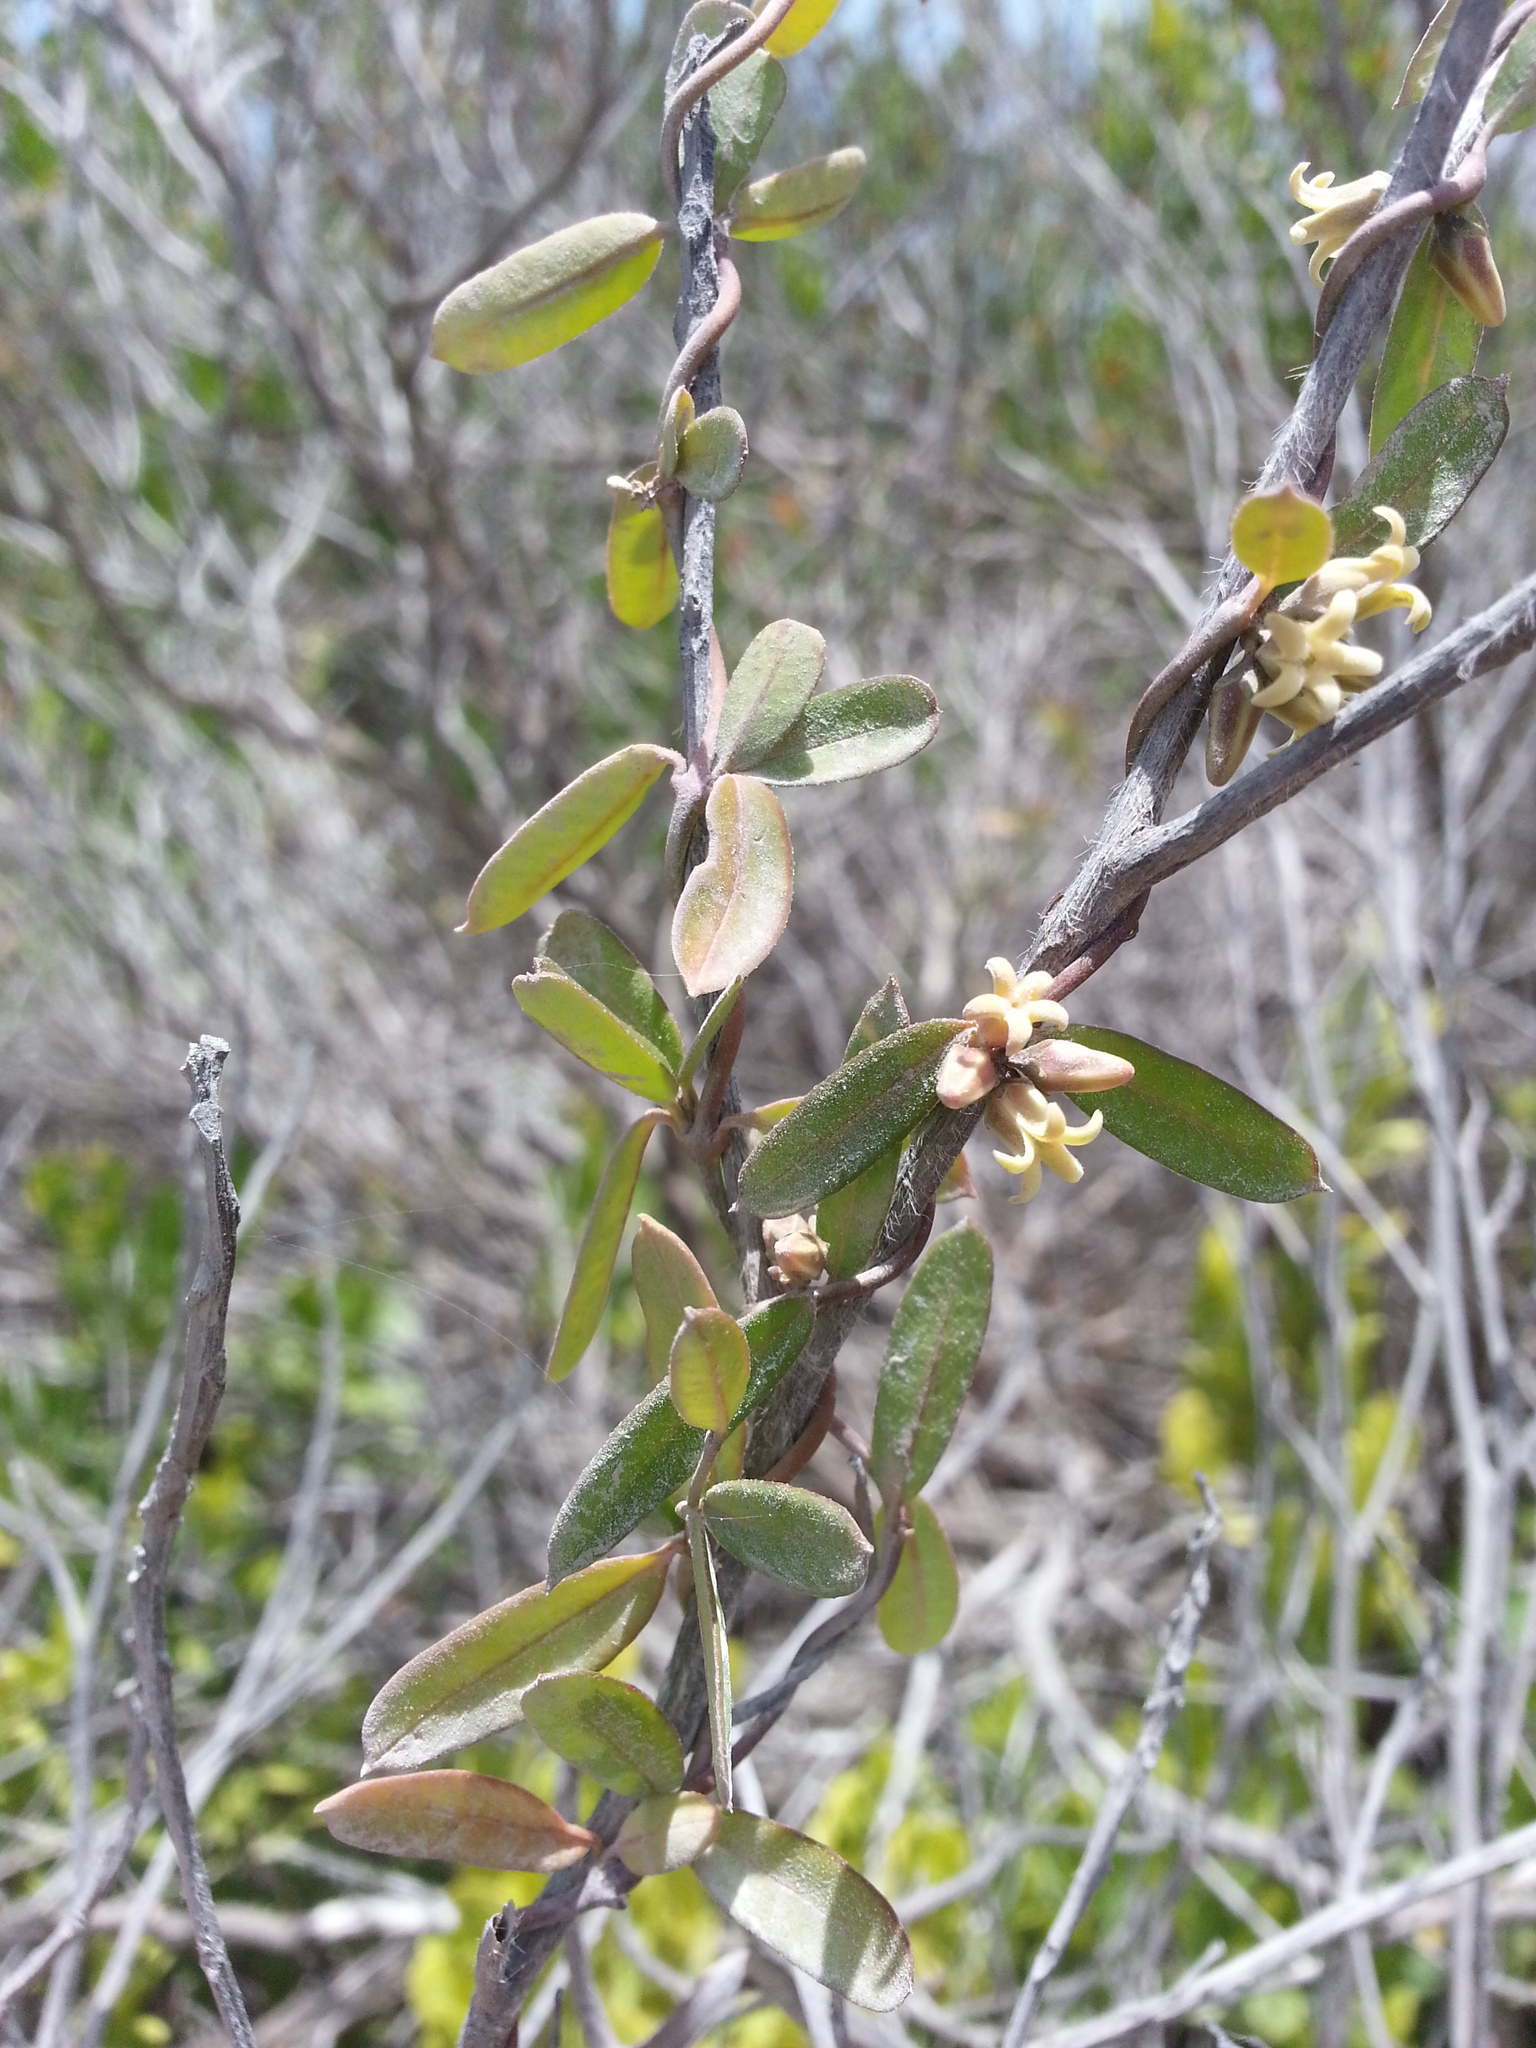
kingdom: Plantae
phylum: Tracheophyta
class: Magnoliopsida
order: Gentianales
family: Apocynaceae
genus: Metastelma
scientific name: Metastelma anegadense
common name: Wire wist
